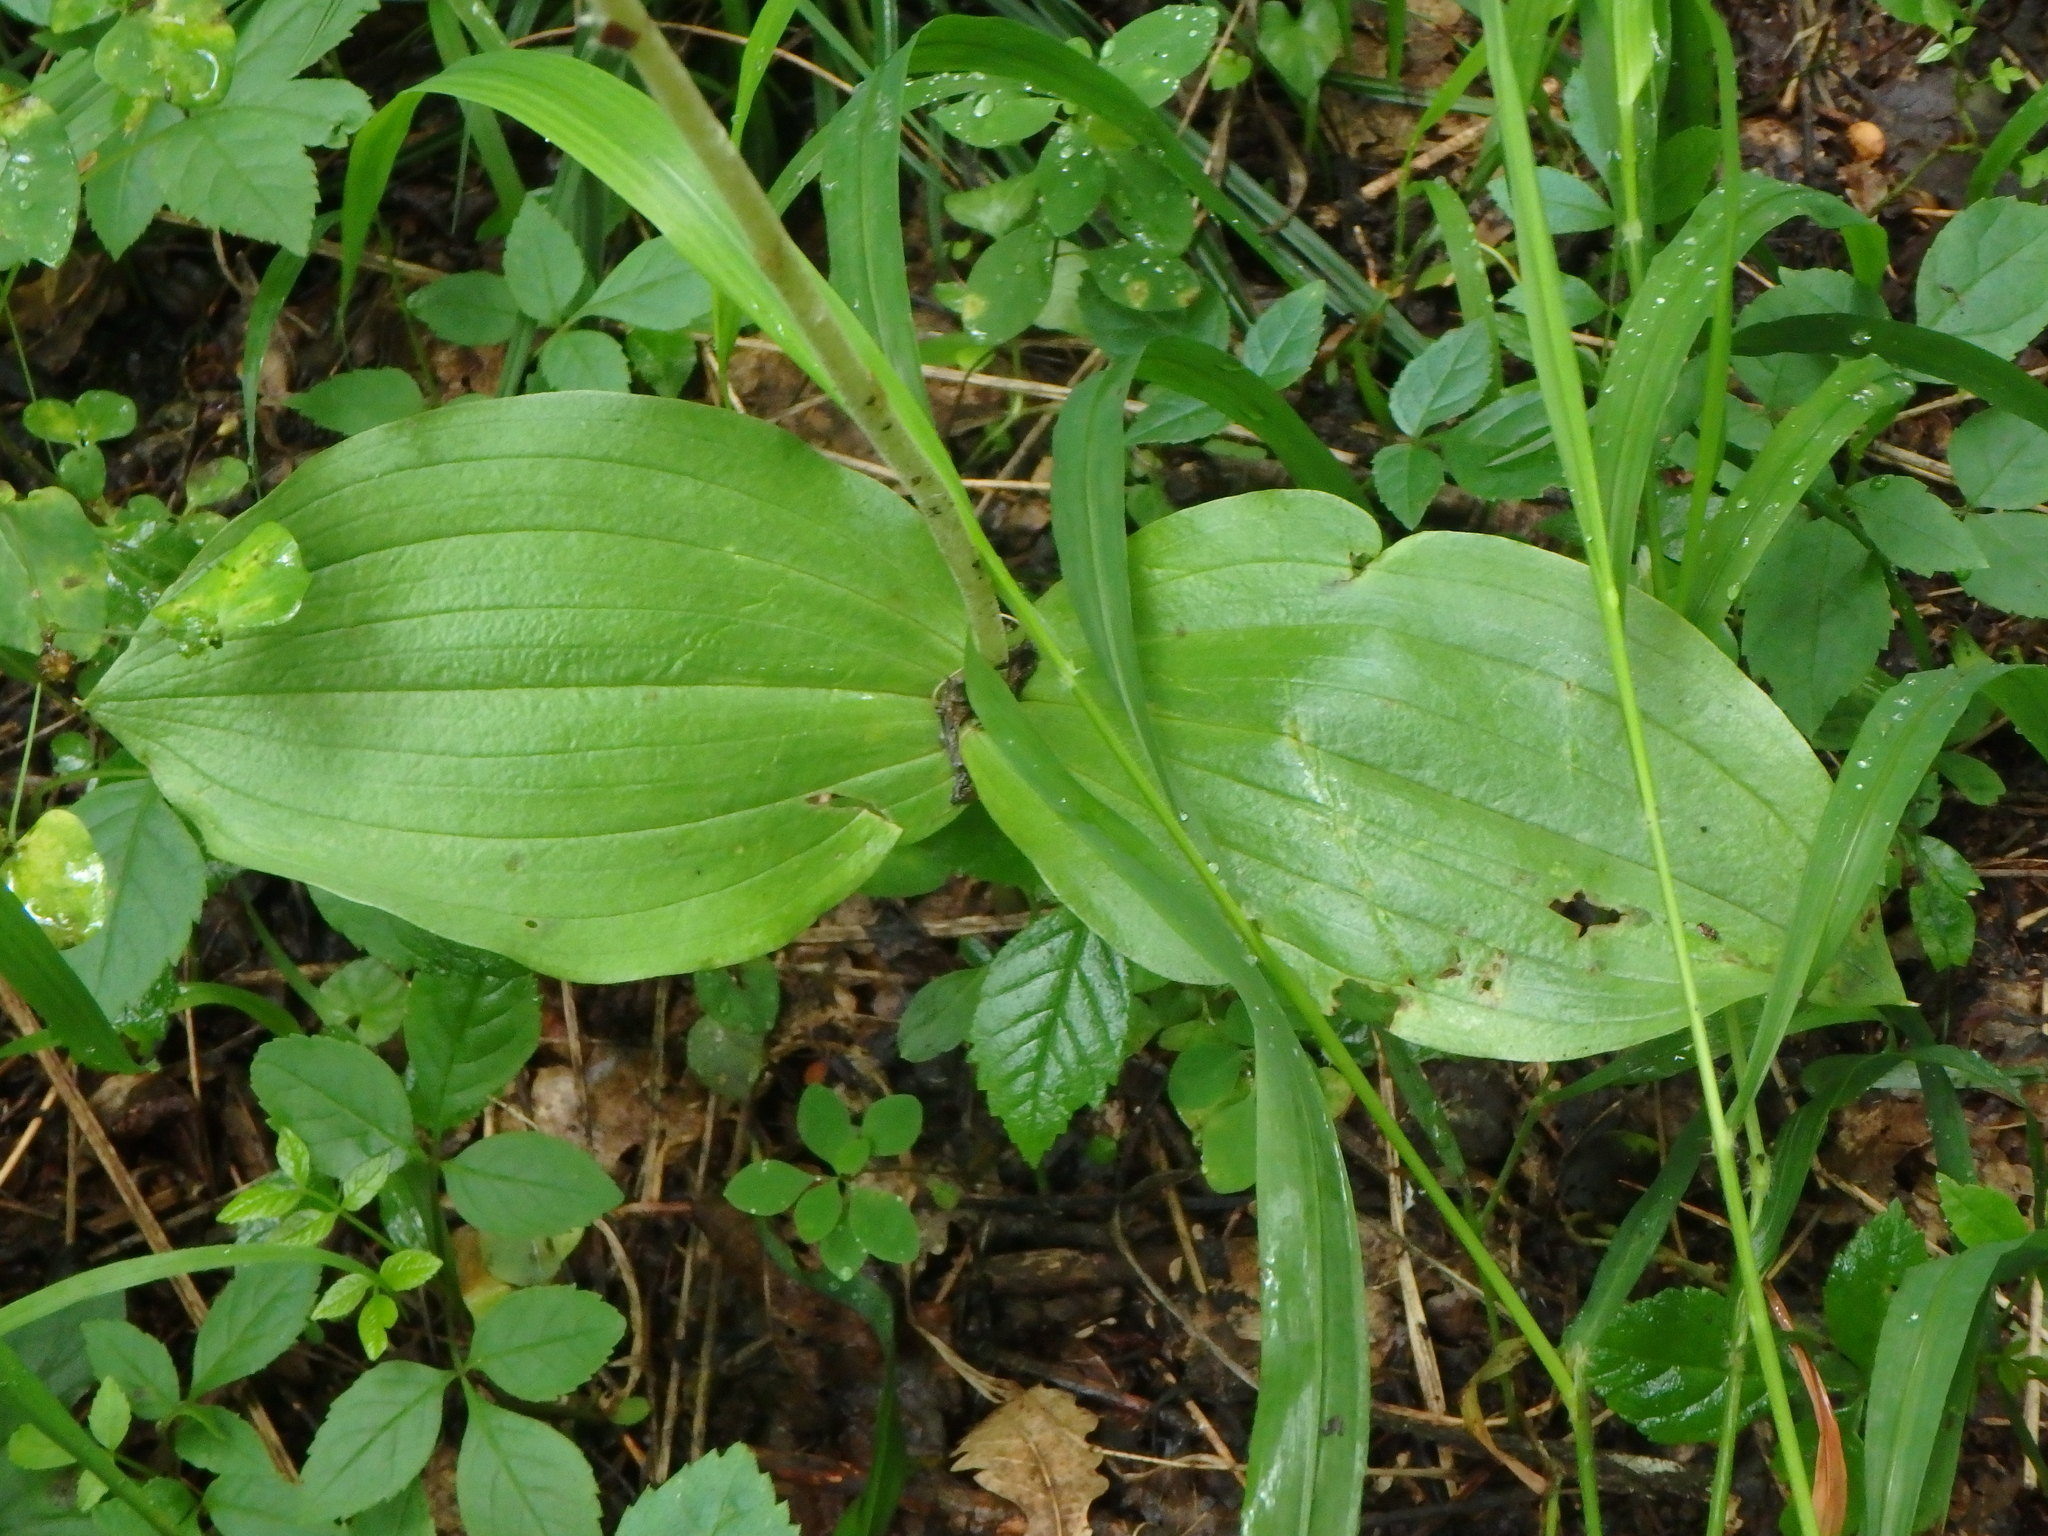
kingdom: Plantae
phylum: Tracheophyta
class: Liliopsida
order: Asparagales
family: Orchidaceae
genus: Neottia
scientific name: Neottia ovata
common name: Common twayblade
